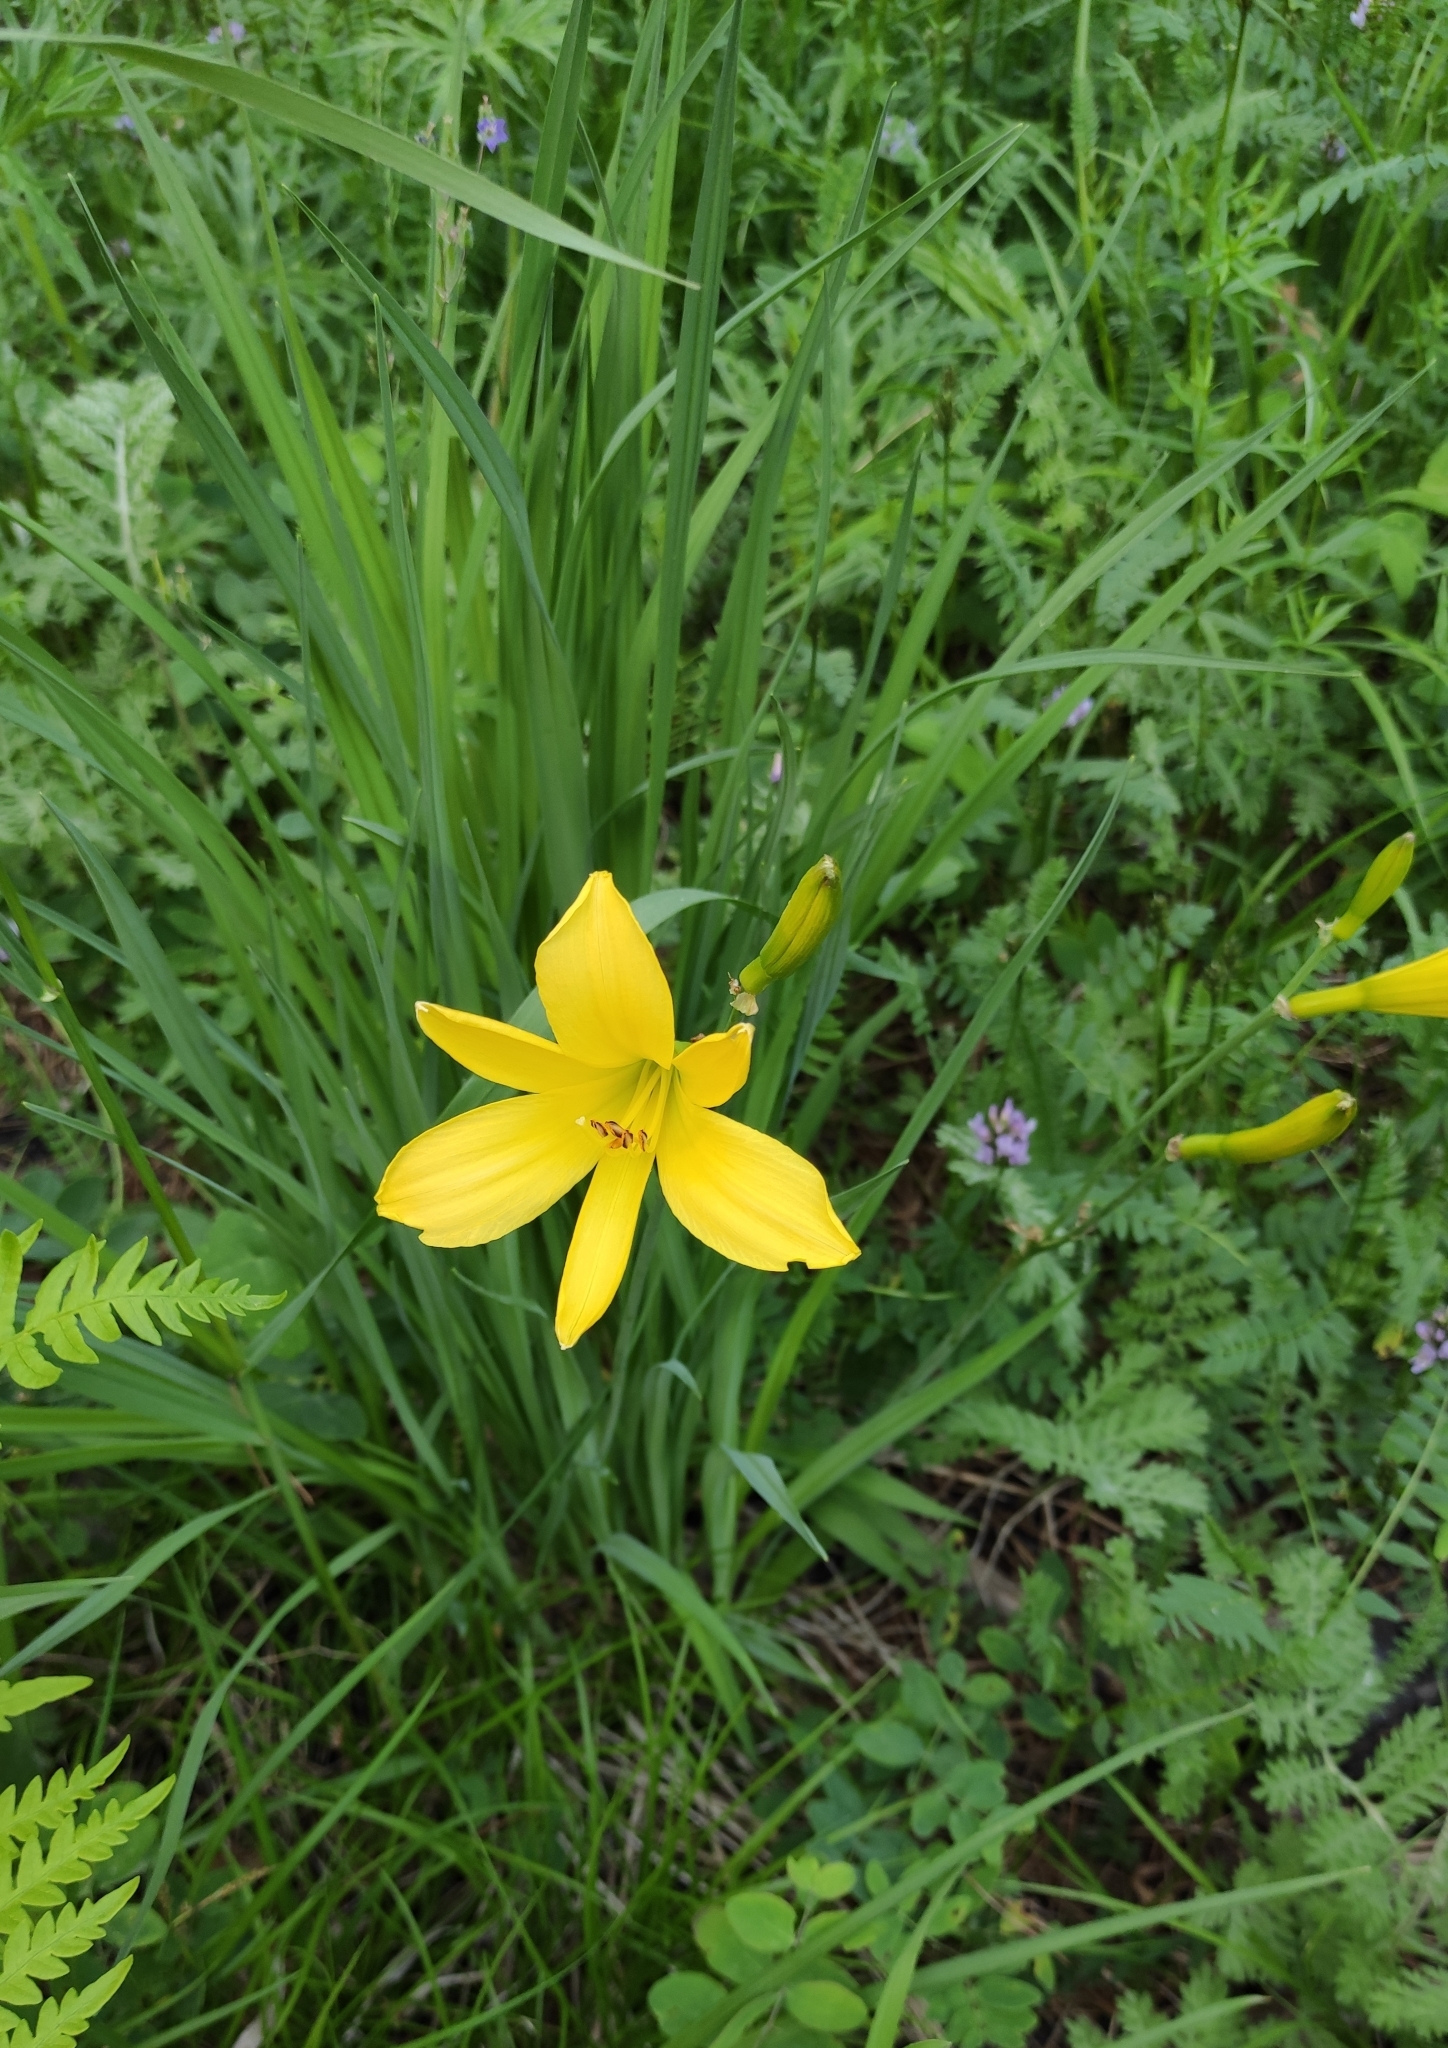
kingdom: Plantae
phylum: Tracheophyta
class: Liliopsida
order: Asparagales
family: Asphodelaceae
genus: Hemerocallis
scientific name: Hemerocallis minor
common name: Small daylily
